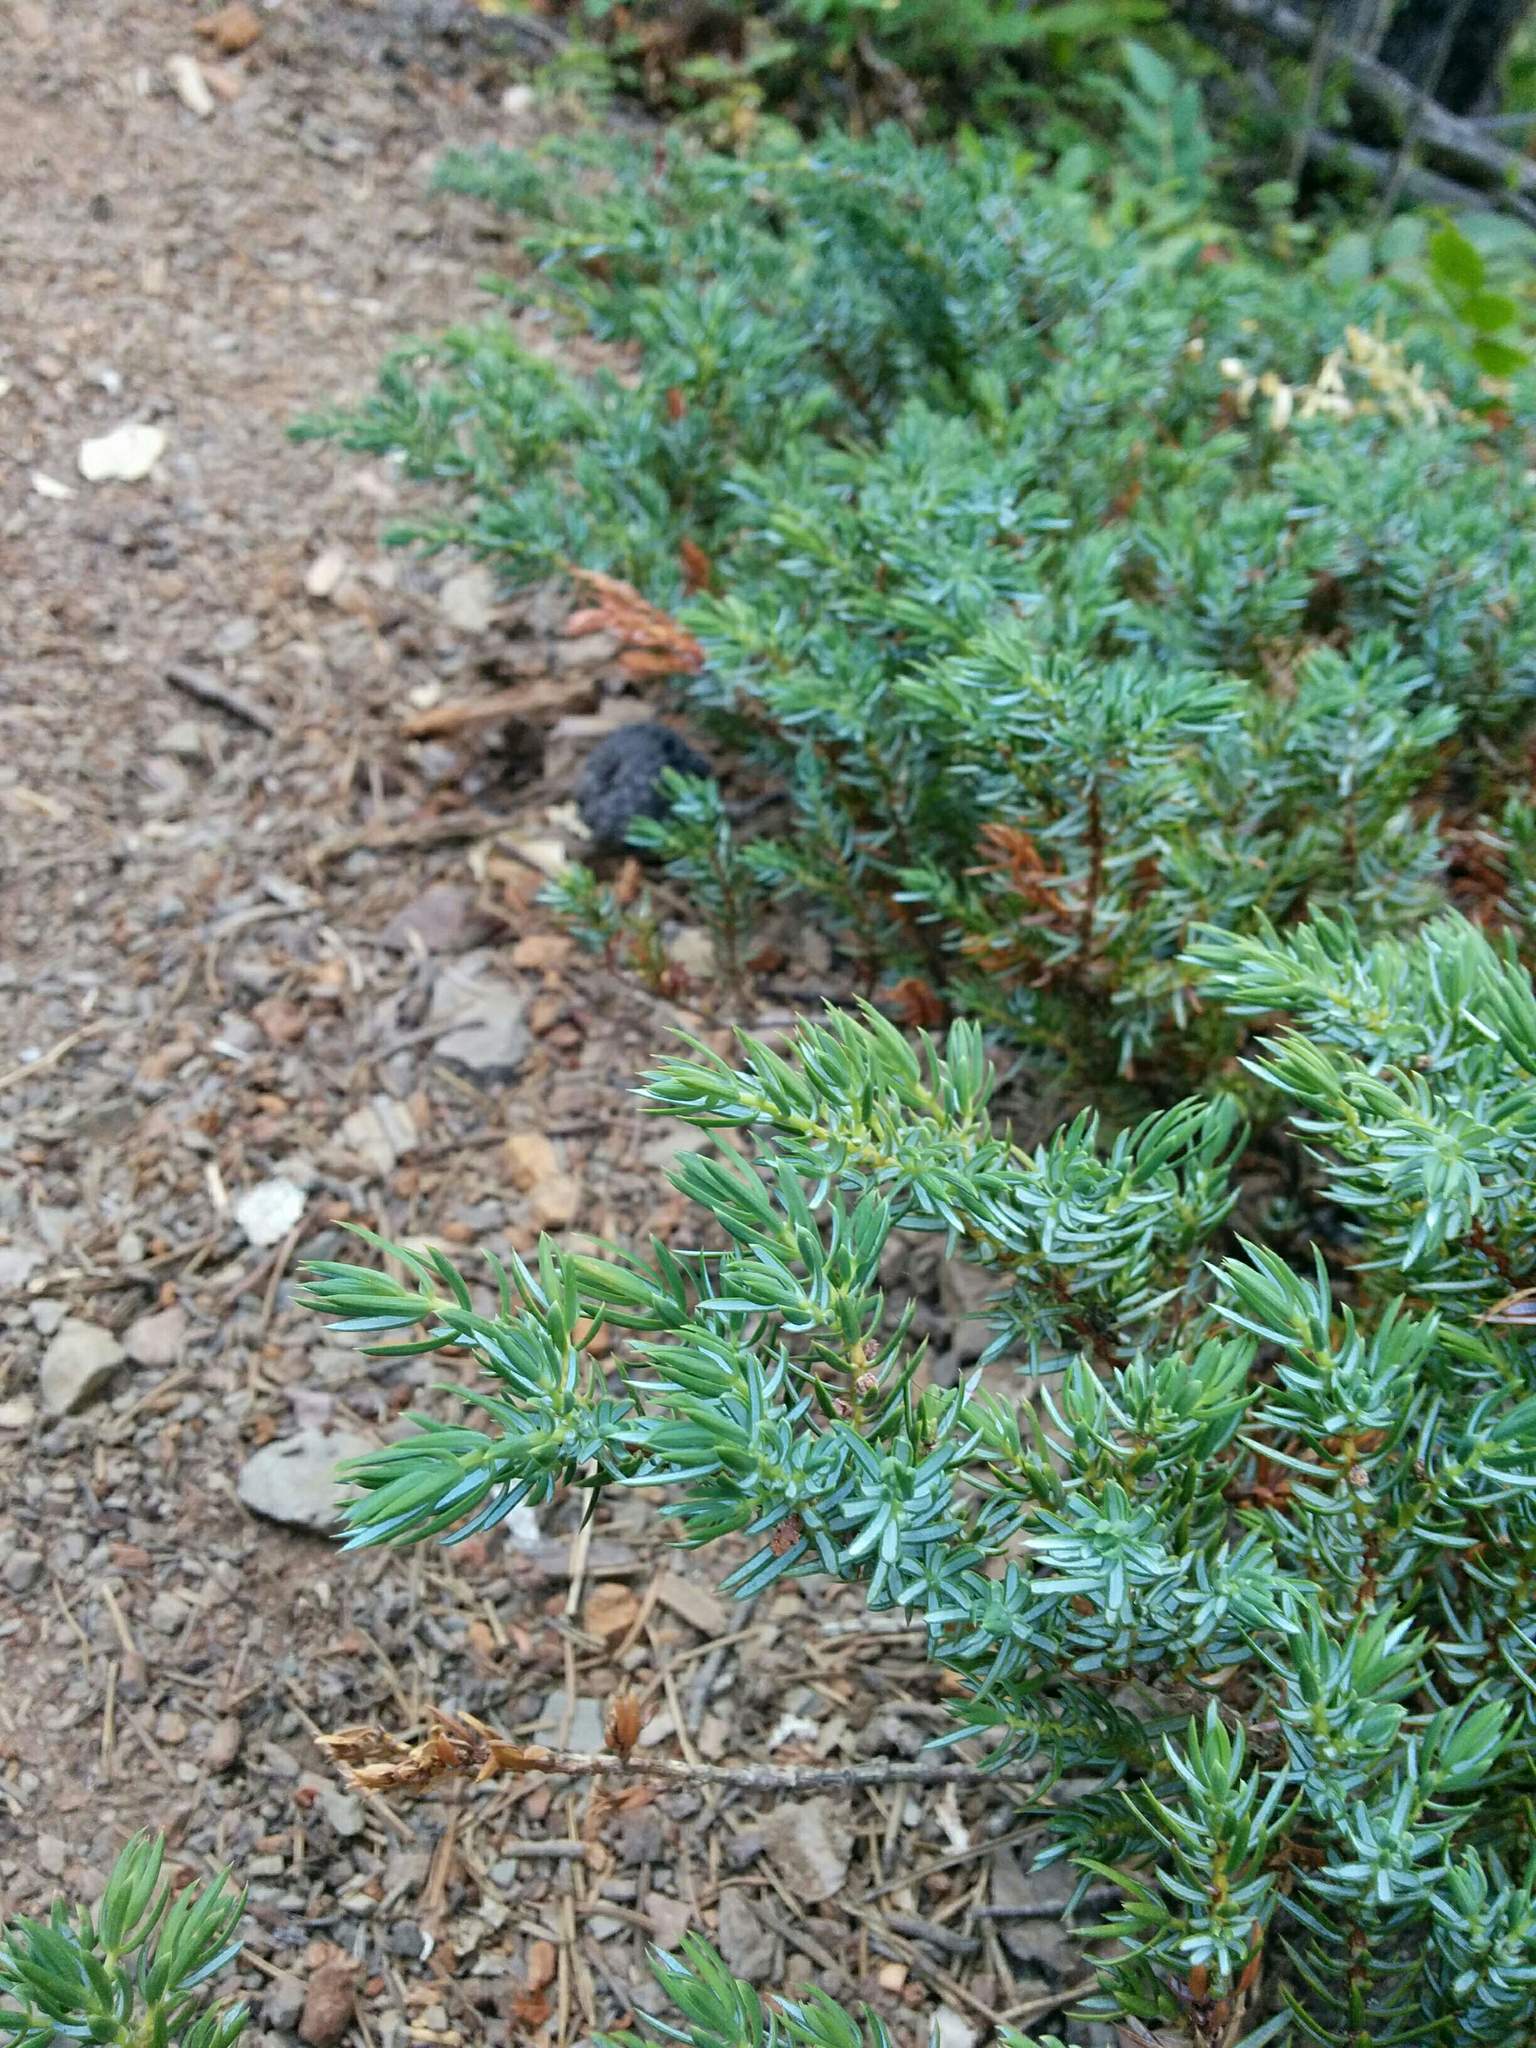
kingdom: Plantae
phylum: Tracheophyta
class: Pinopsida
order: Pinales
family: Cupressaceae
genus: Juniperus
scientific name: Juniperus communis
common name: Common juniper
